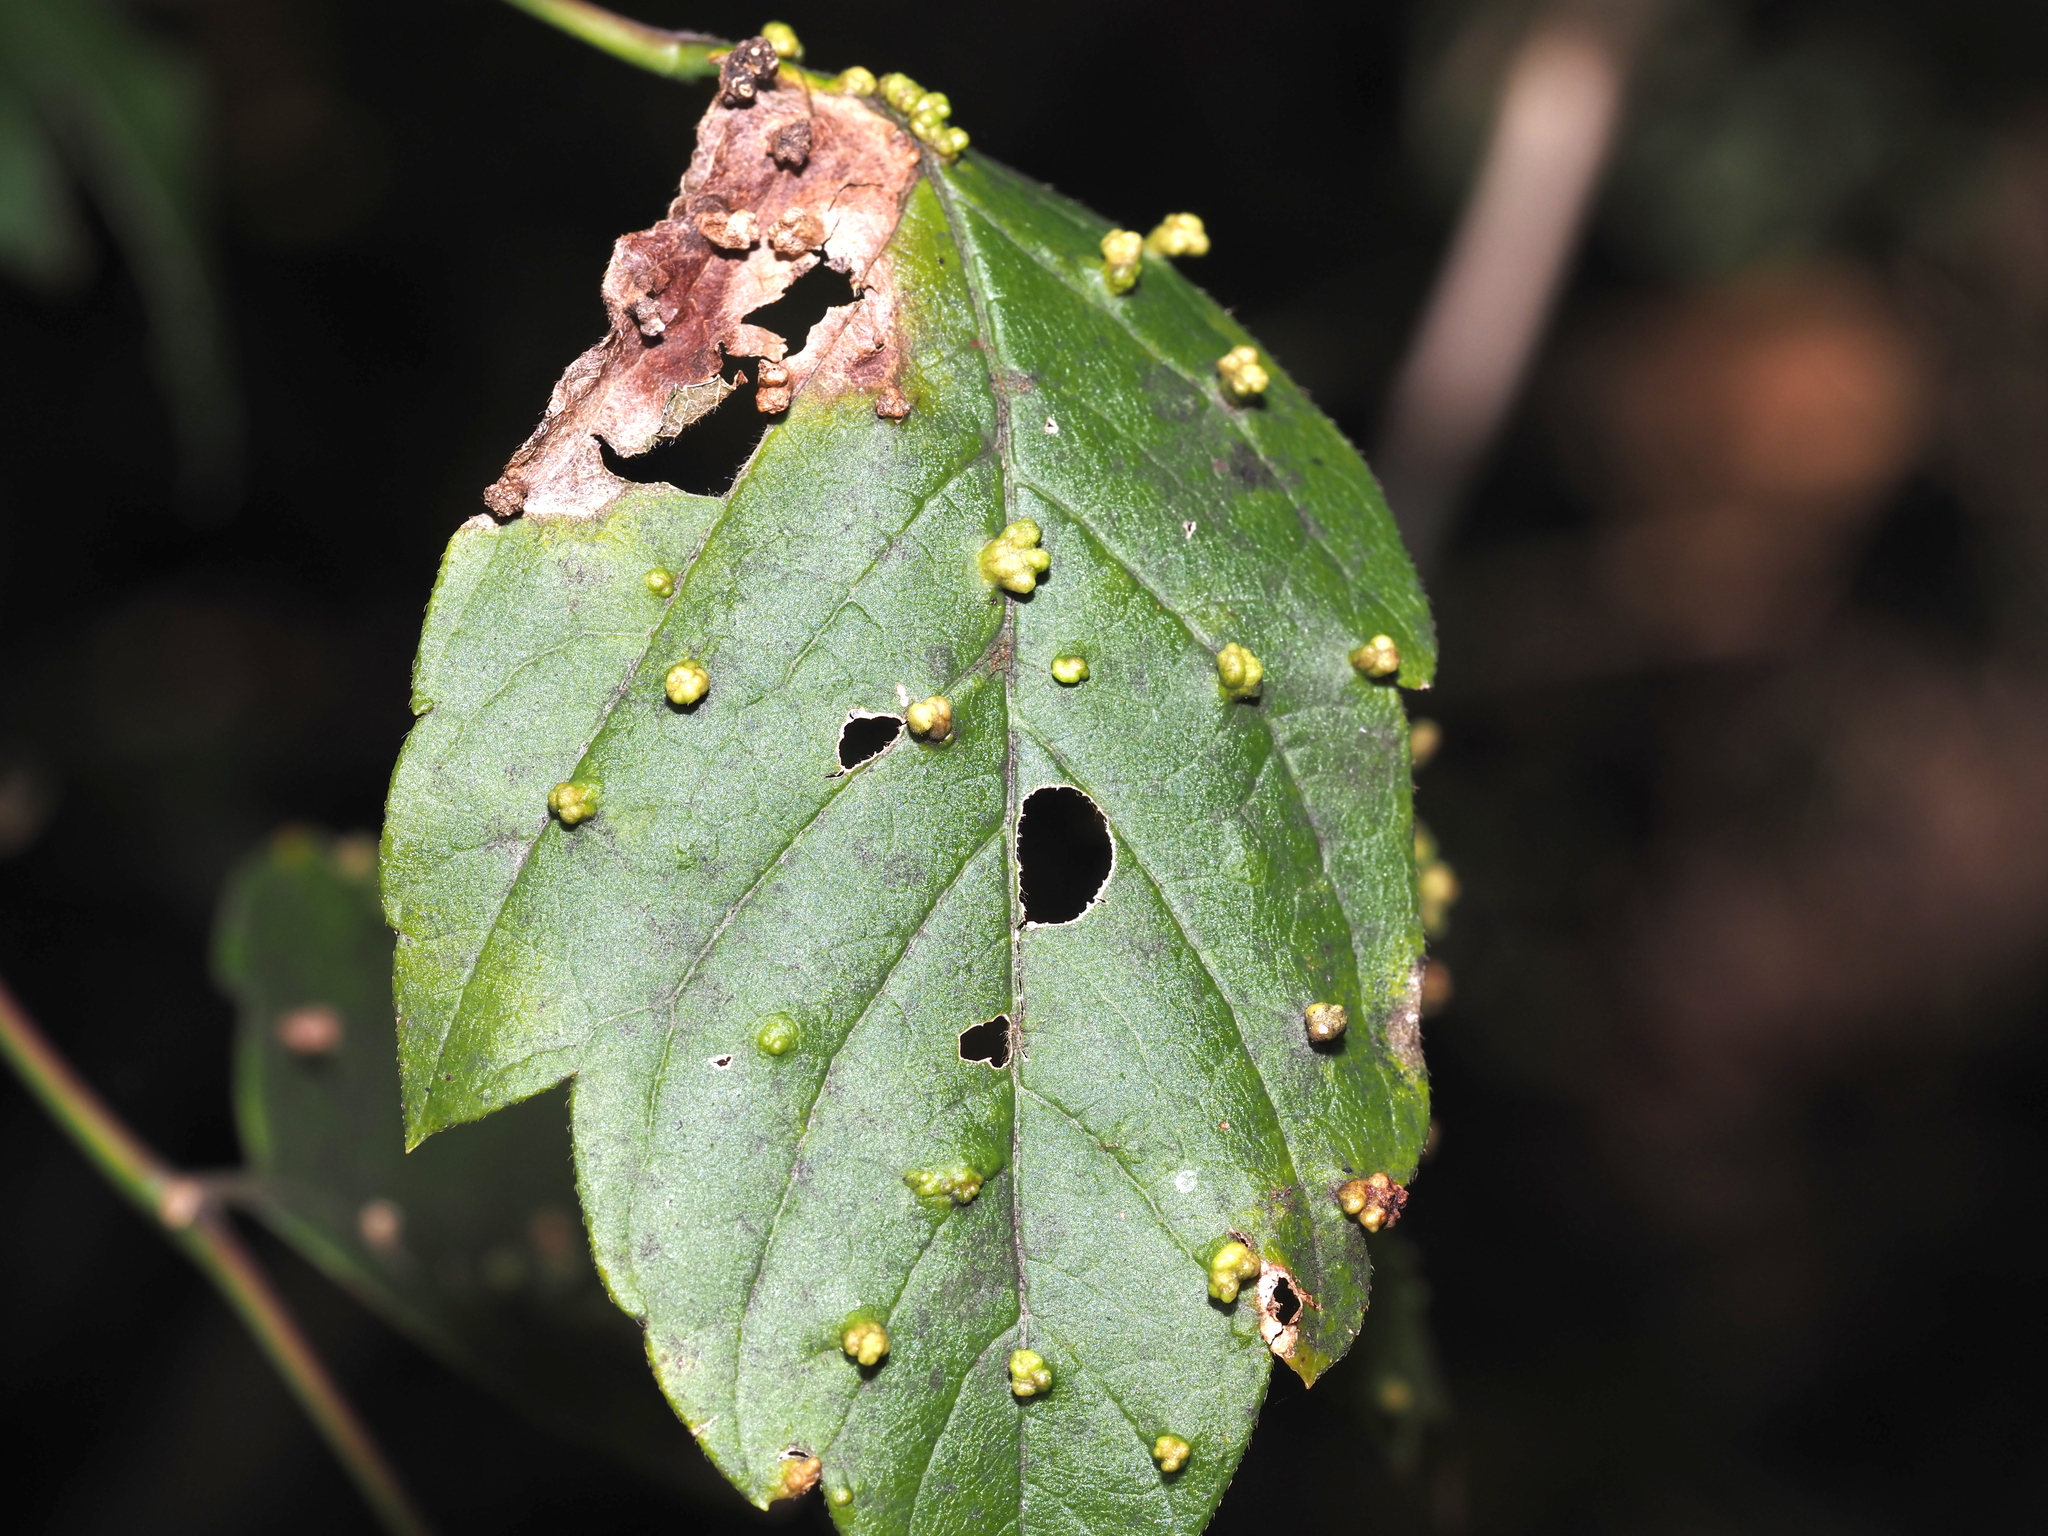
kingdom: Animalia
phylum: Arthropoda
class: Arachnida
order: Trombidiformes
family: Eriophyidae
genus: Aceria
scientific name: Aceria
